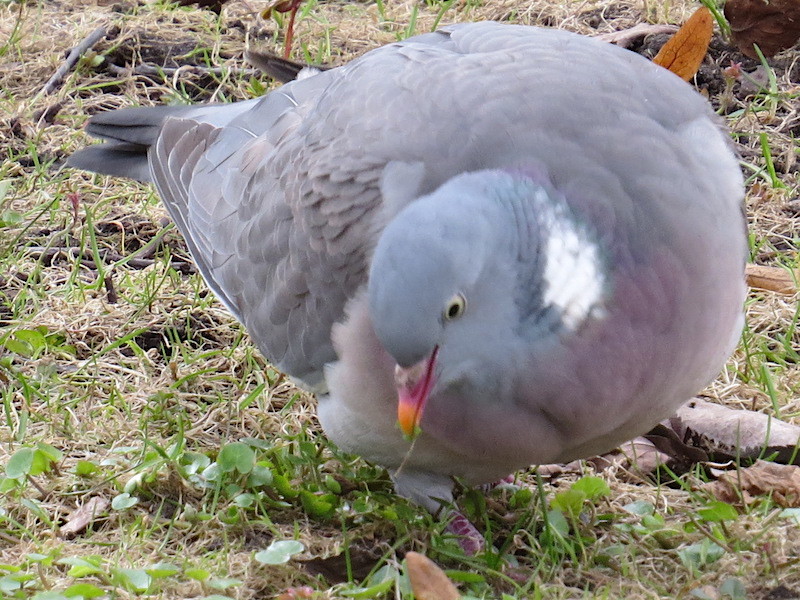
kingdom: Animalia
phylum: Chordata
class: Aves
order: Columbiformes
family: Columbidae
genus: Columba
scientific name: Columba palumbus
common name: Common wood pigeon
